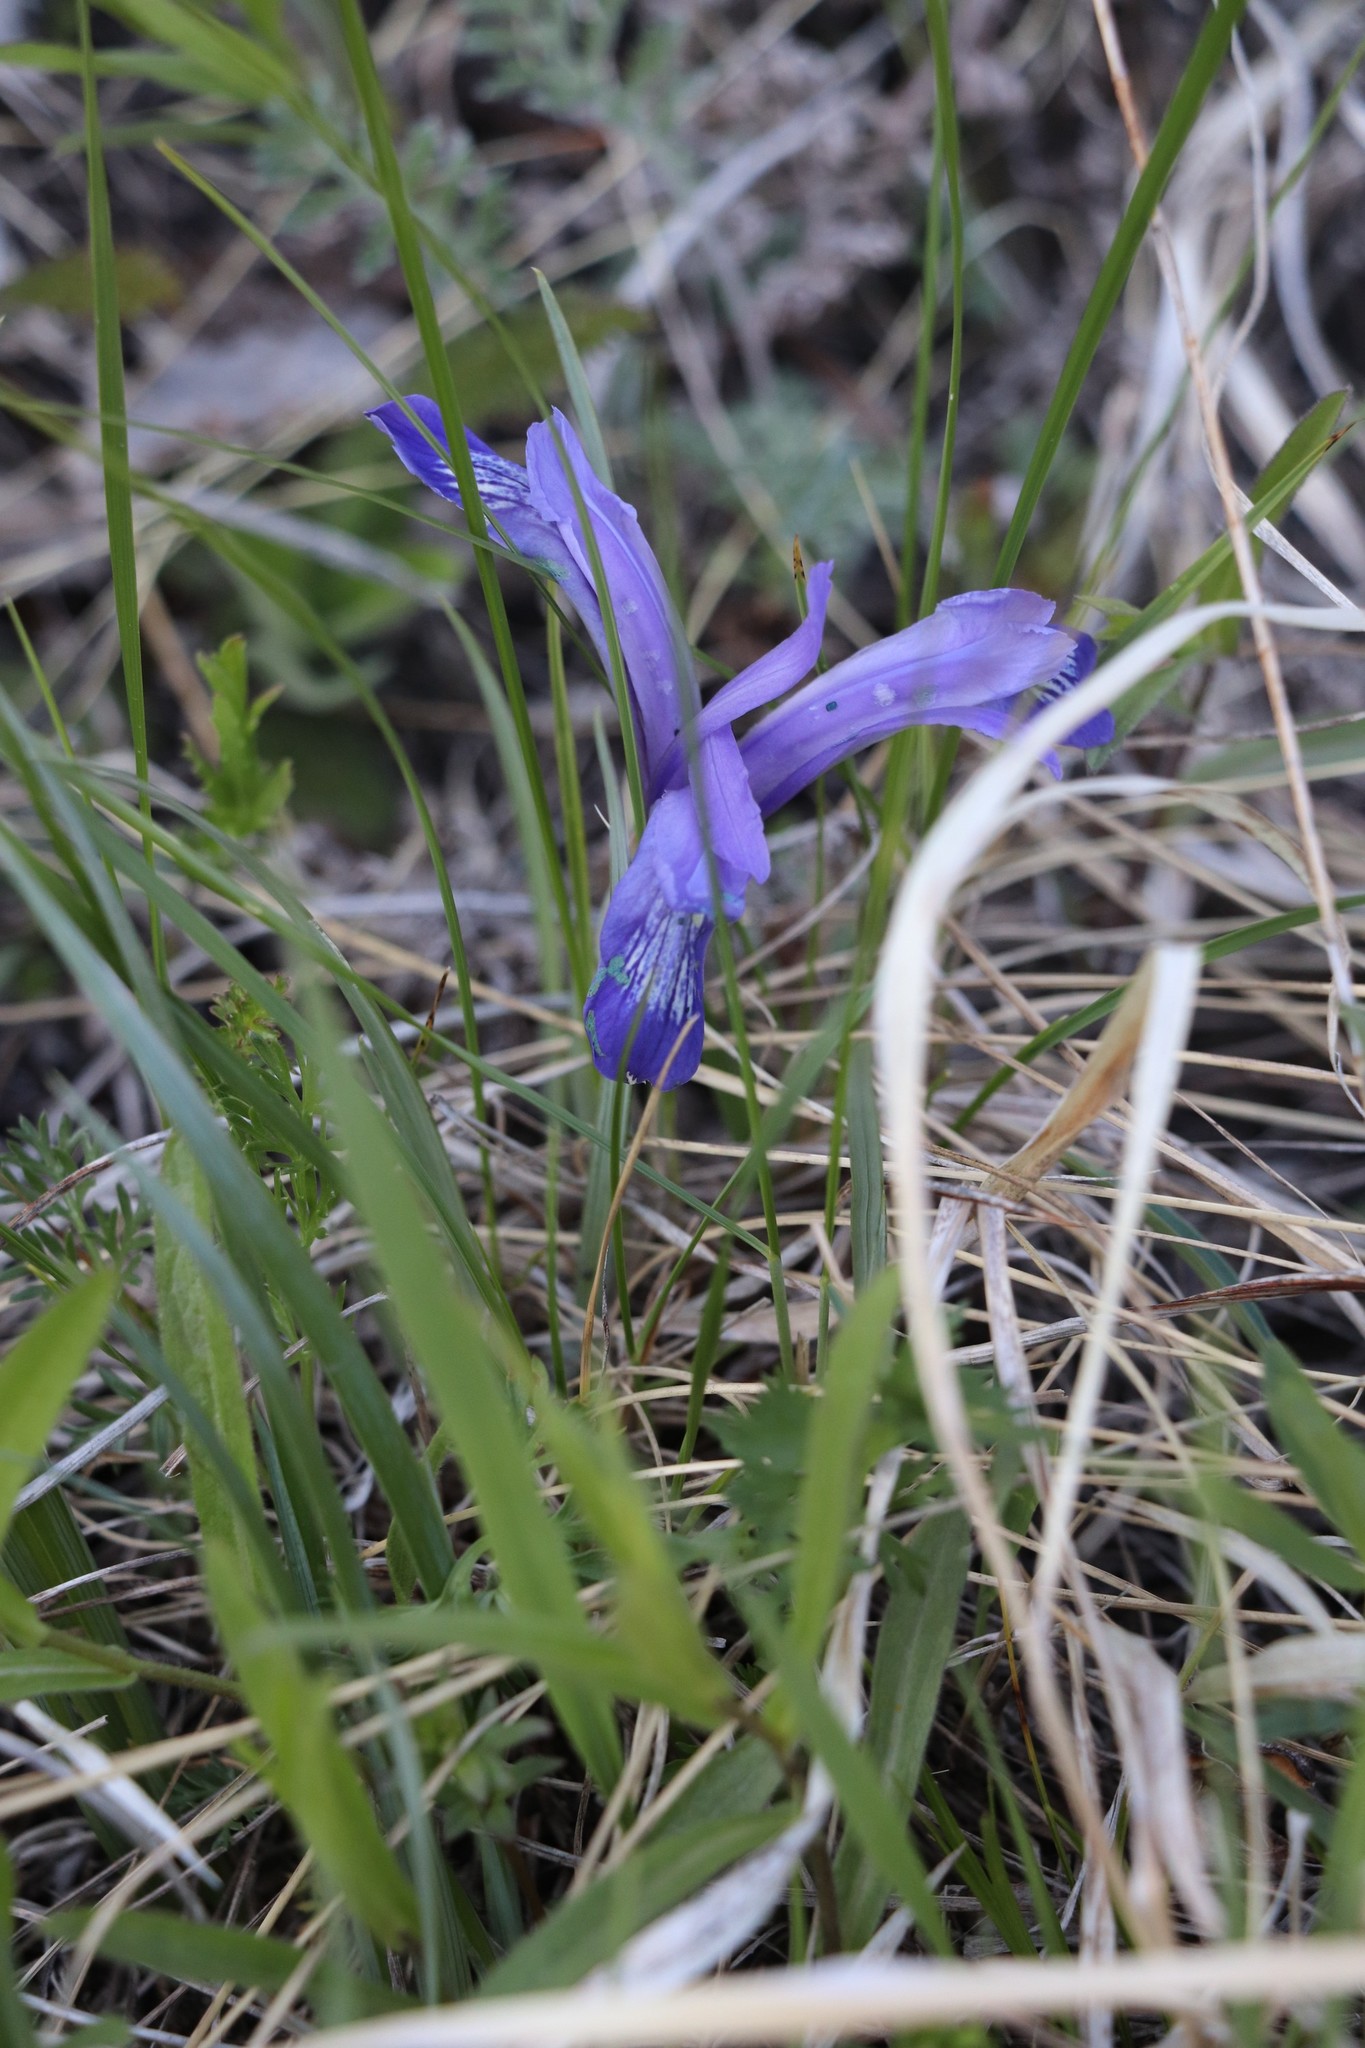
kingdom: Plantae
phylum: Tracheophyta
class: Liliopsida
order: Asparagales
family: Iridaceae
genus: Iris
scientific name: Iris ruthenica
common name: Purple-bract iris
